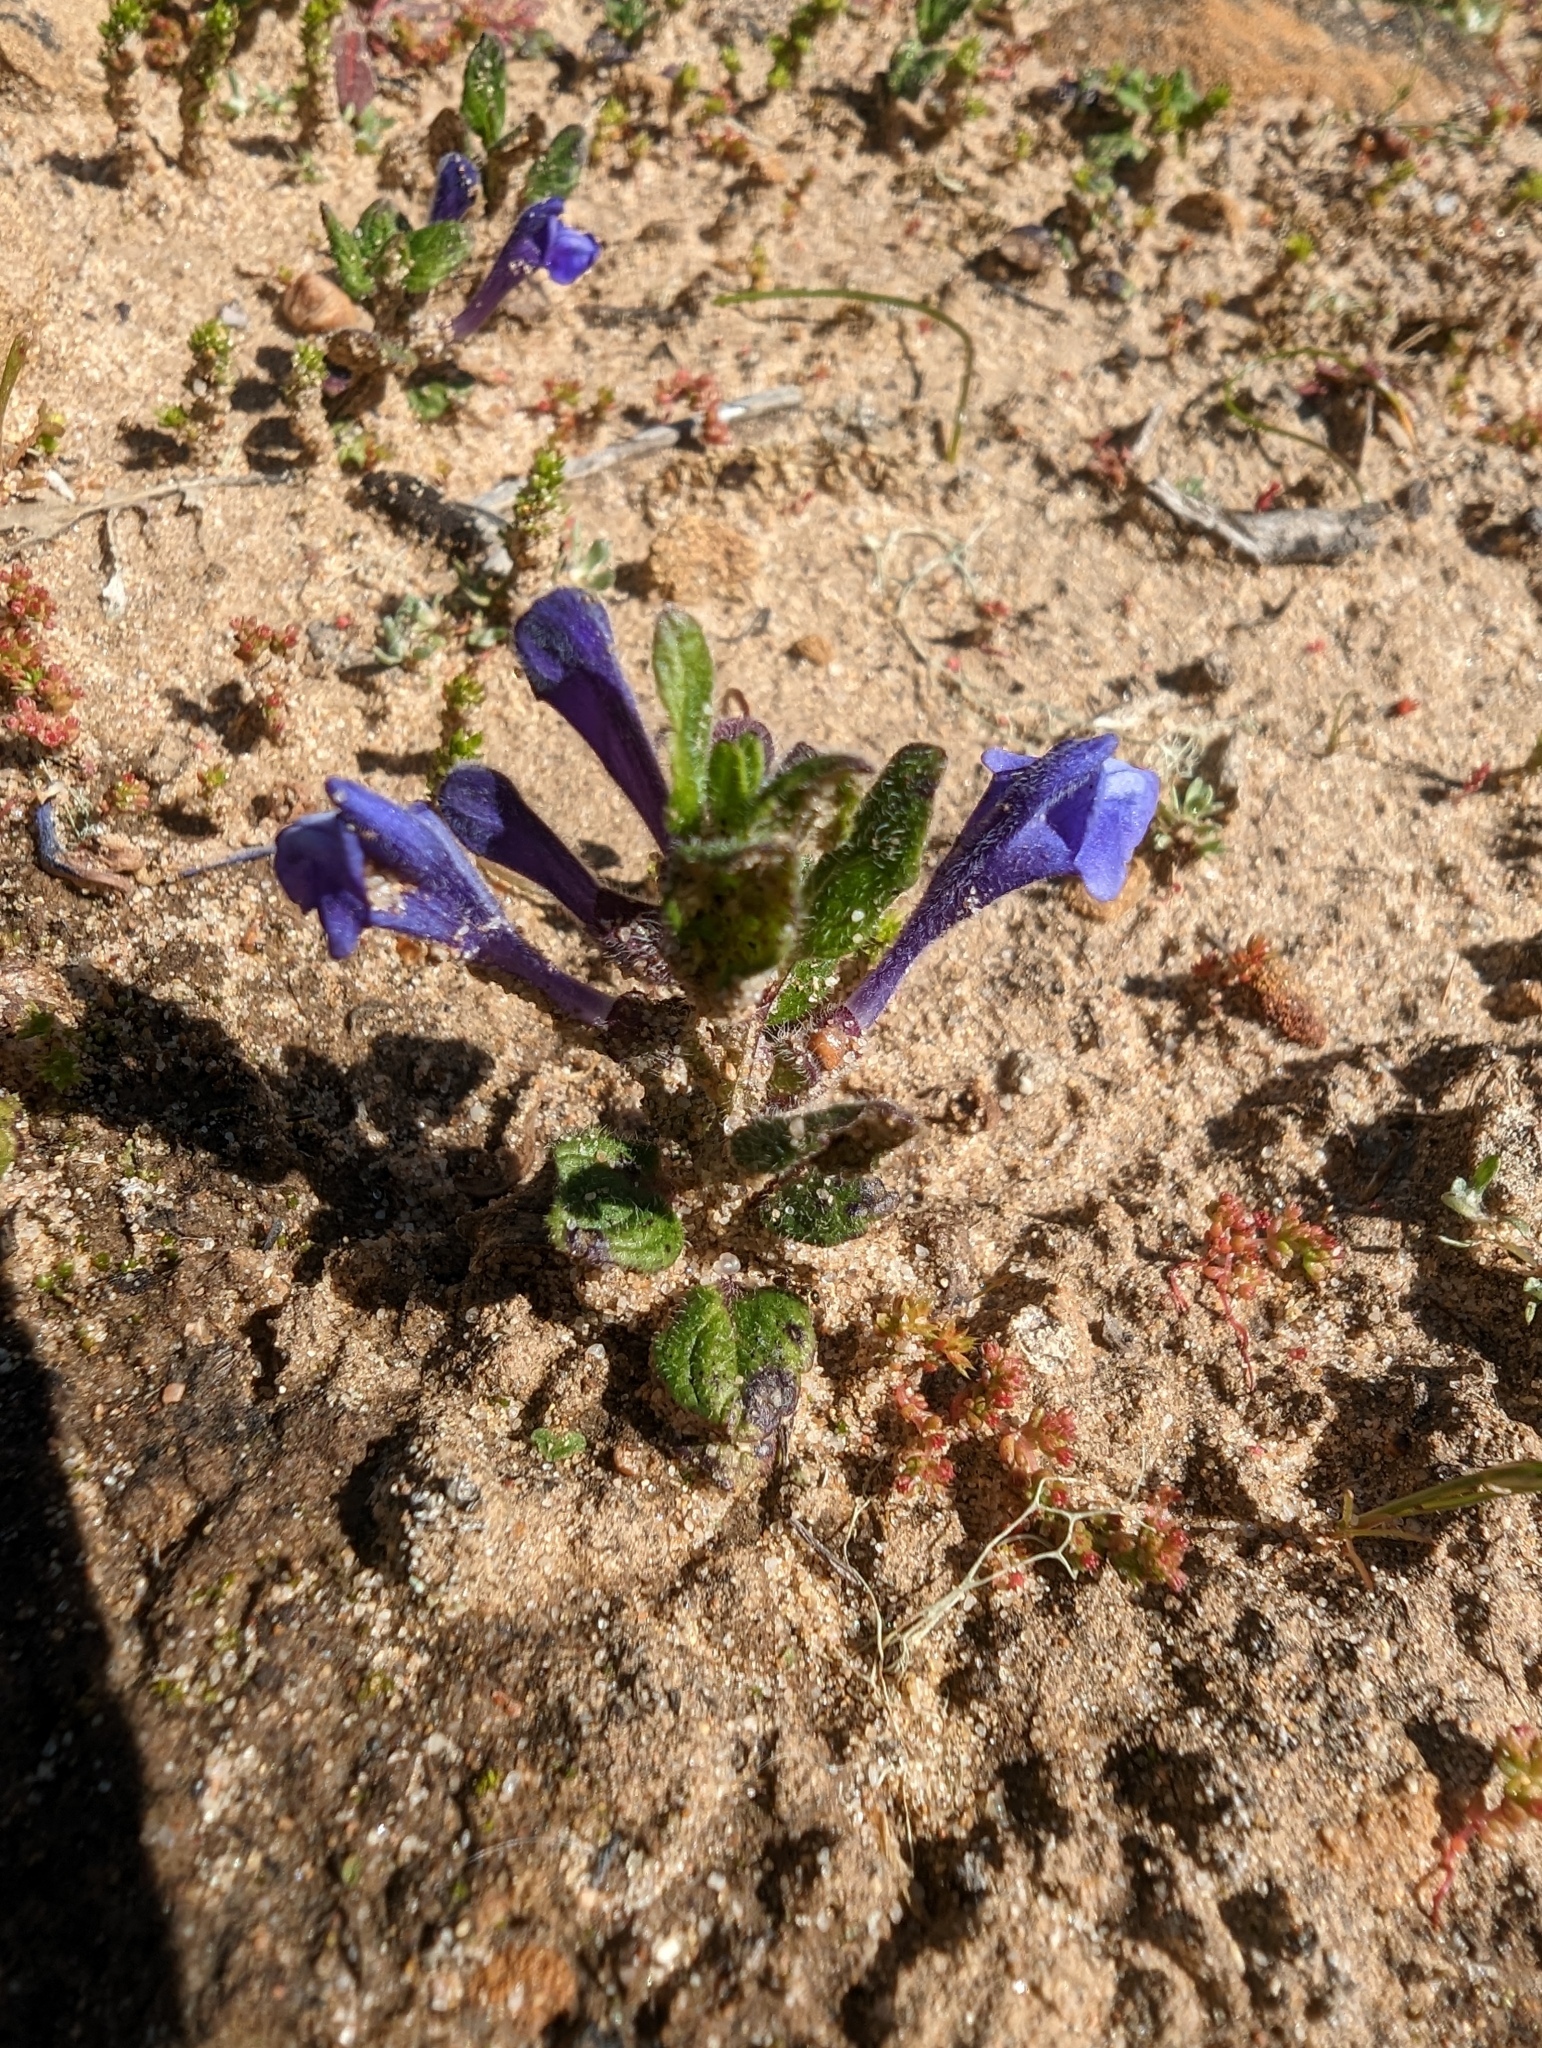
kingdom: Plantae
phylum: Tracheophyta
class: Magnoliopsida
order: Lamiales
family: Lamiaceae
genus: Scutellaria
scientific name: Scutellaria tuberosa
